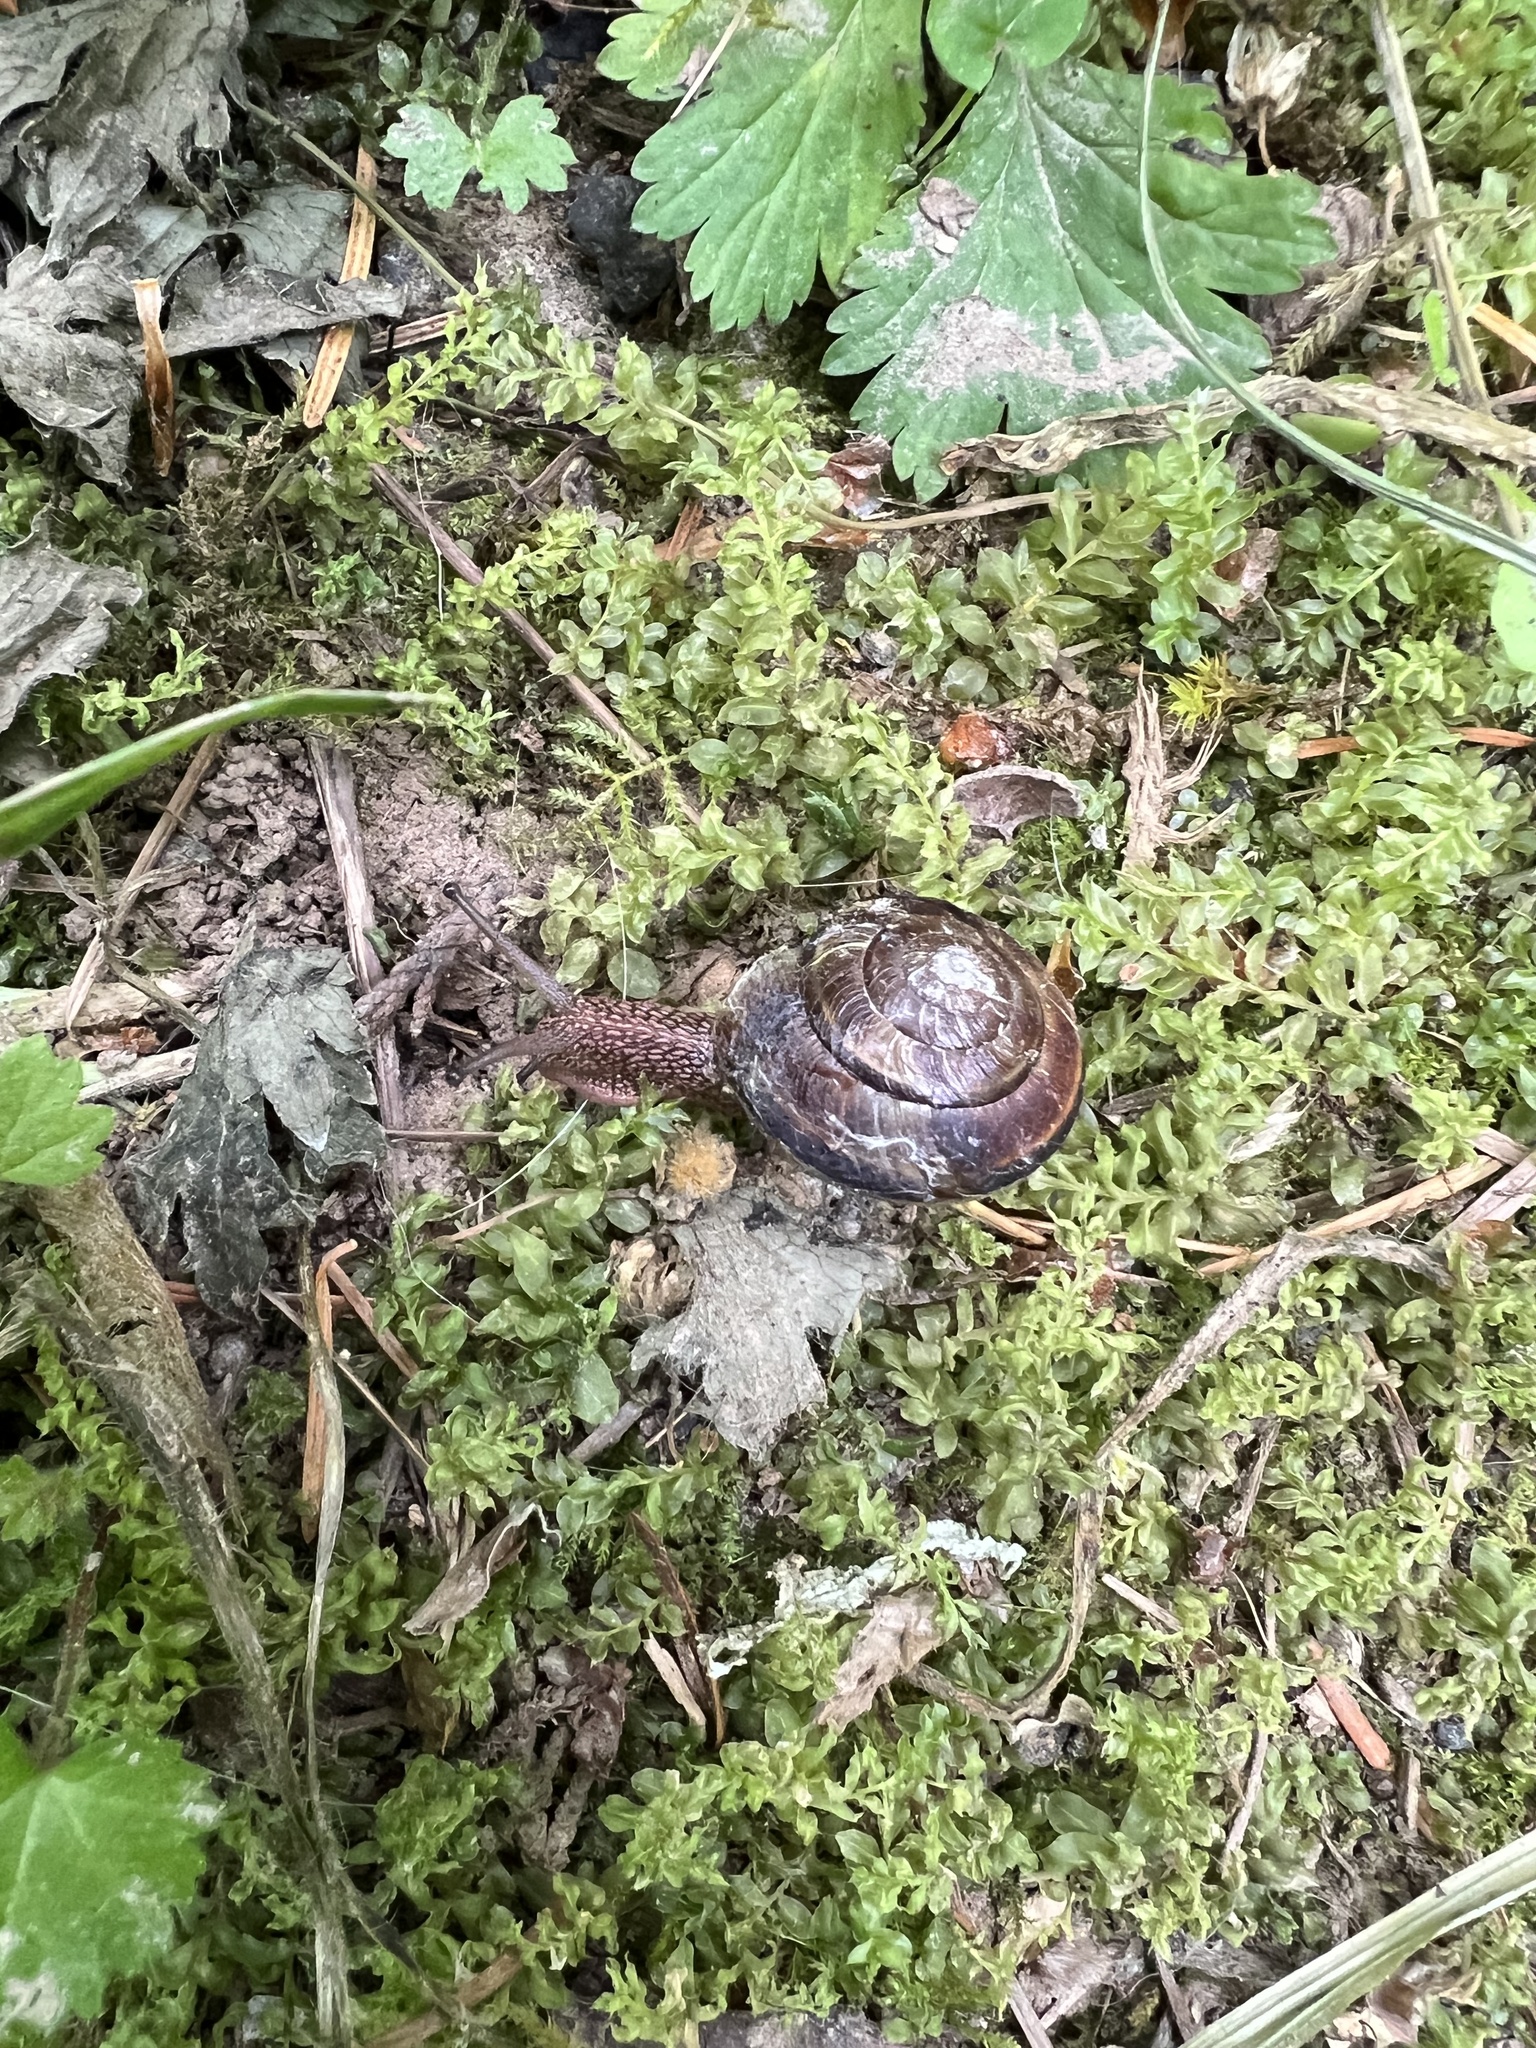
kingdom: Animalia
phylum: Mollusca
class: Gastropoda
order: Stylommatophora
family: Xanthonychidae
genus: Monadenia
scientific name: Monadenia fidelis
